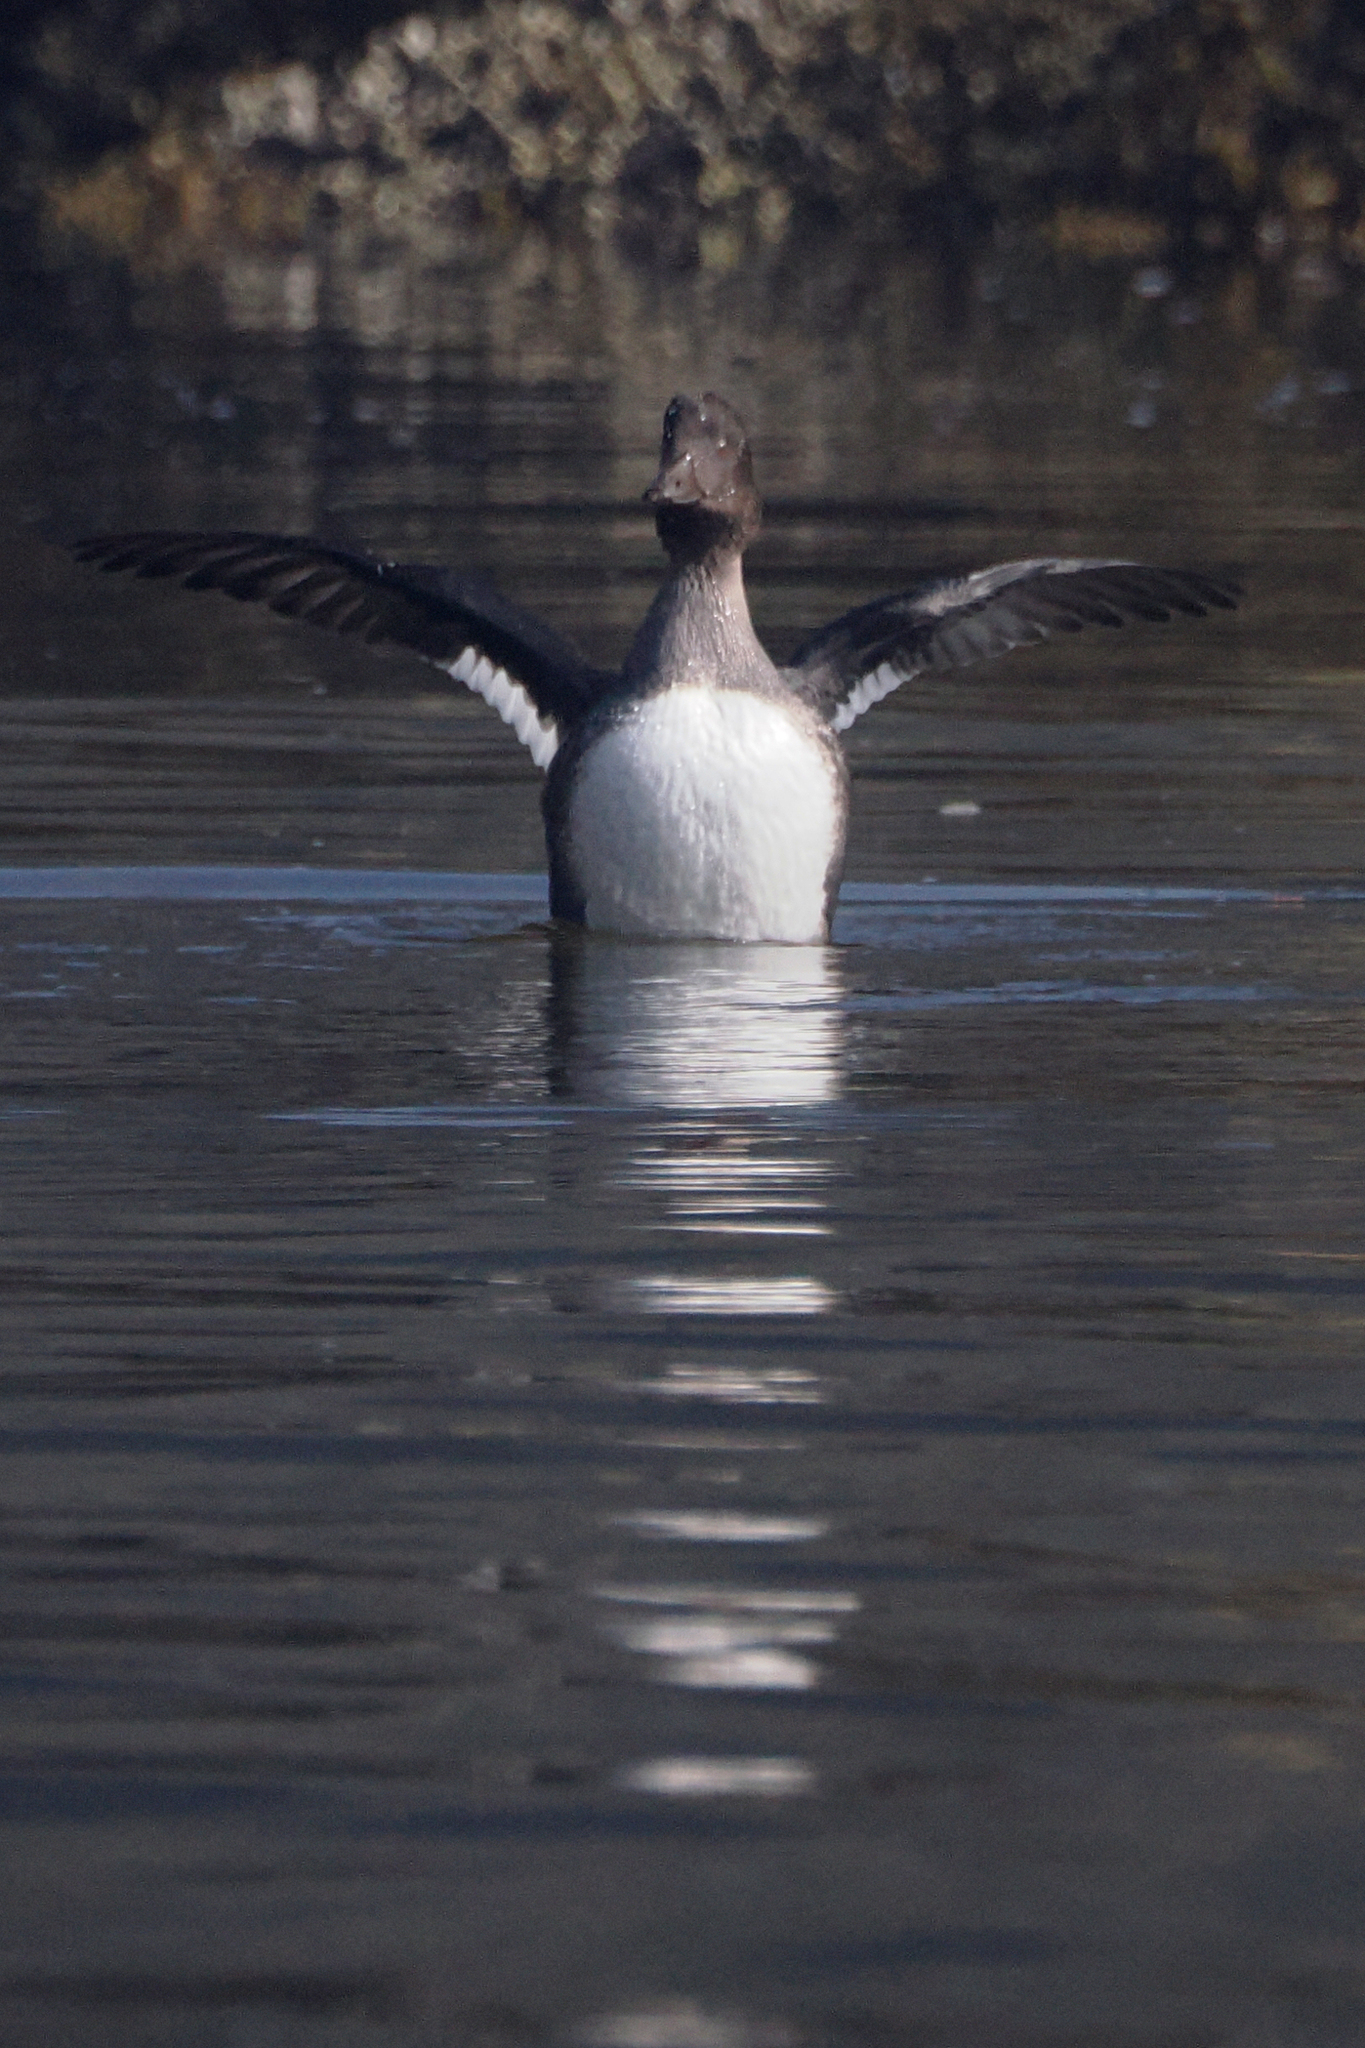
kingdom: Animalia
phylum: Chordata
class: Aves
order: Anseriformes
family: Anatidae
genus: Bucephala
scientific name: Bucephala clangula
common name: Common goldeneye
